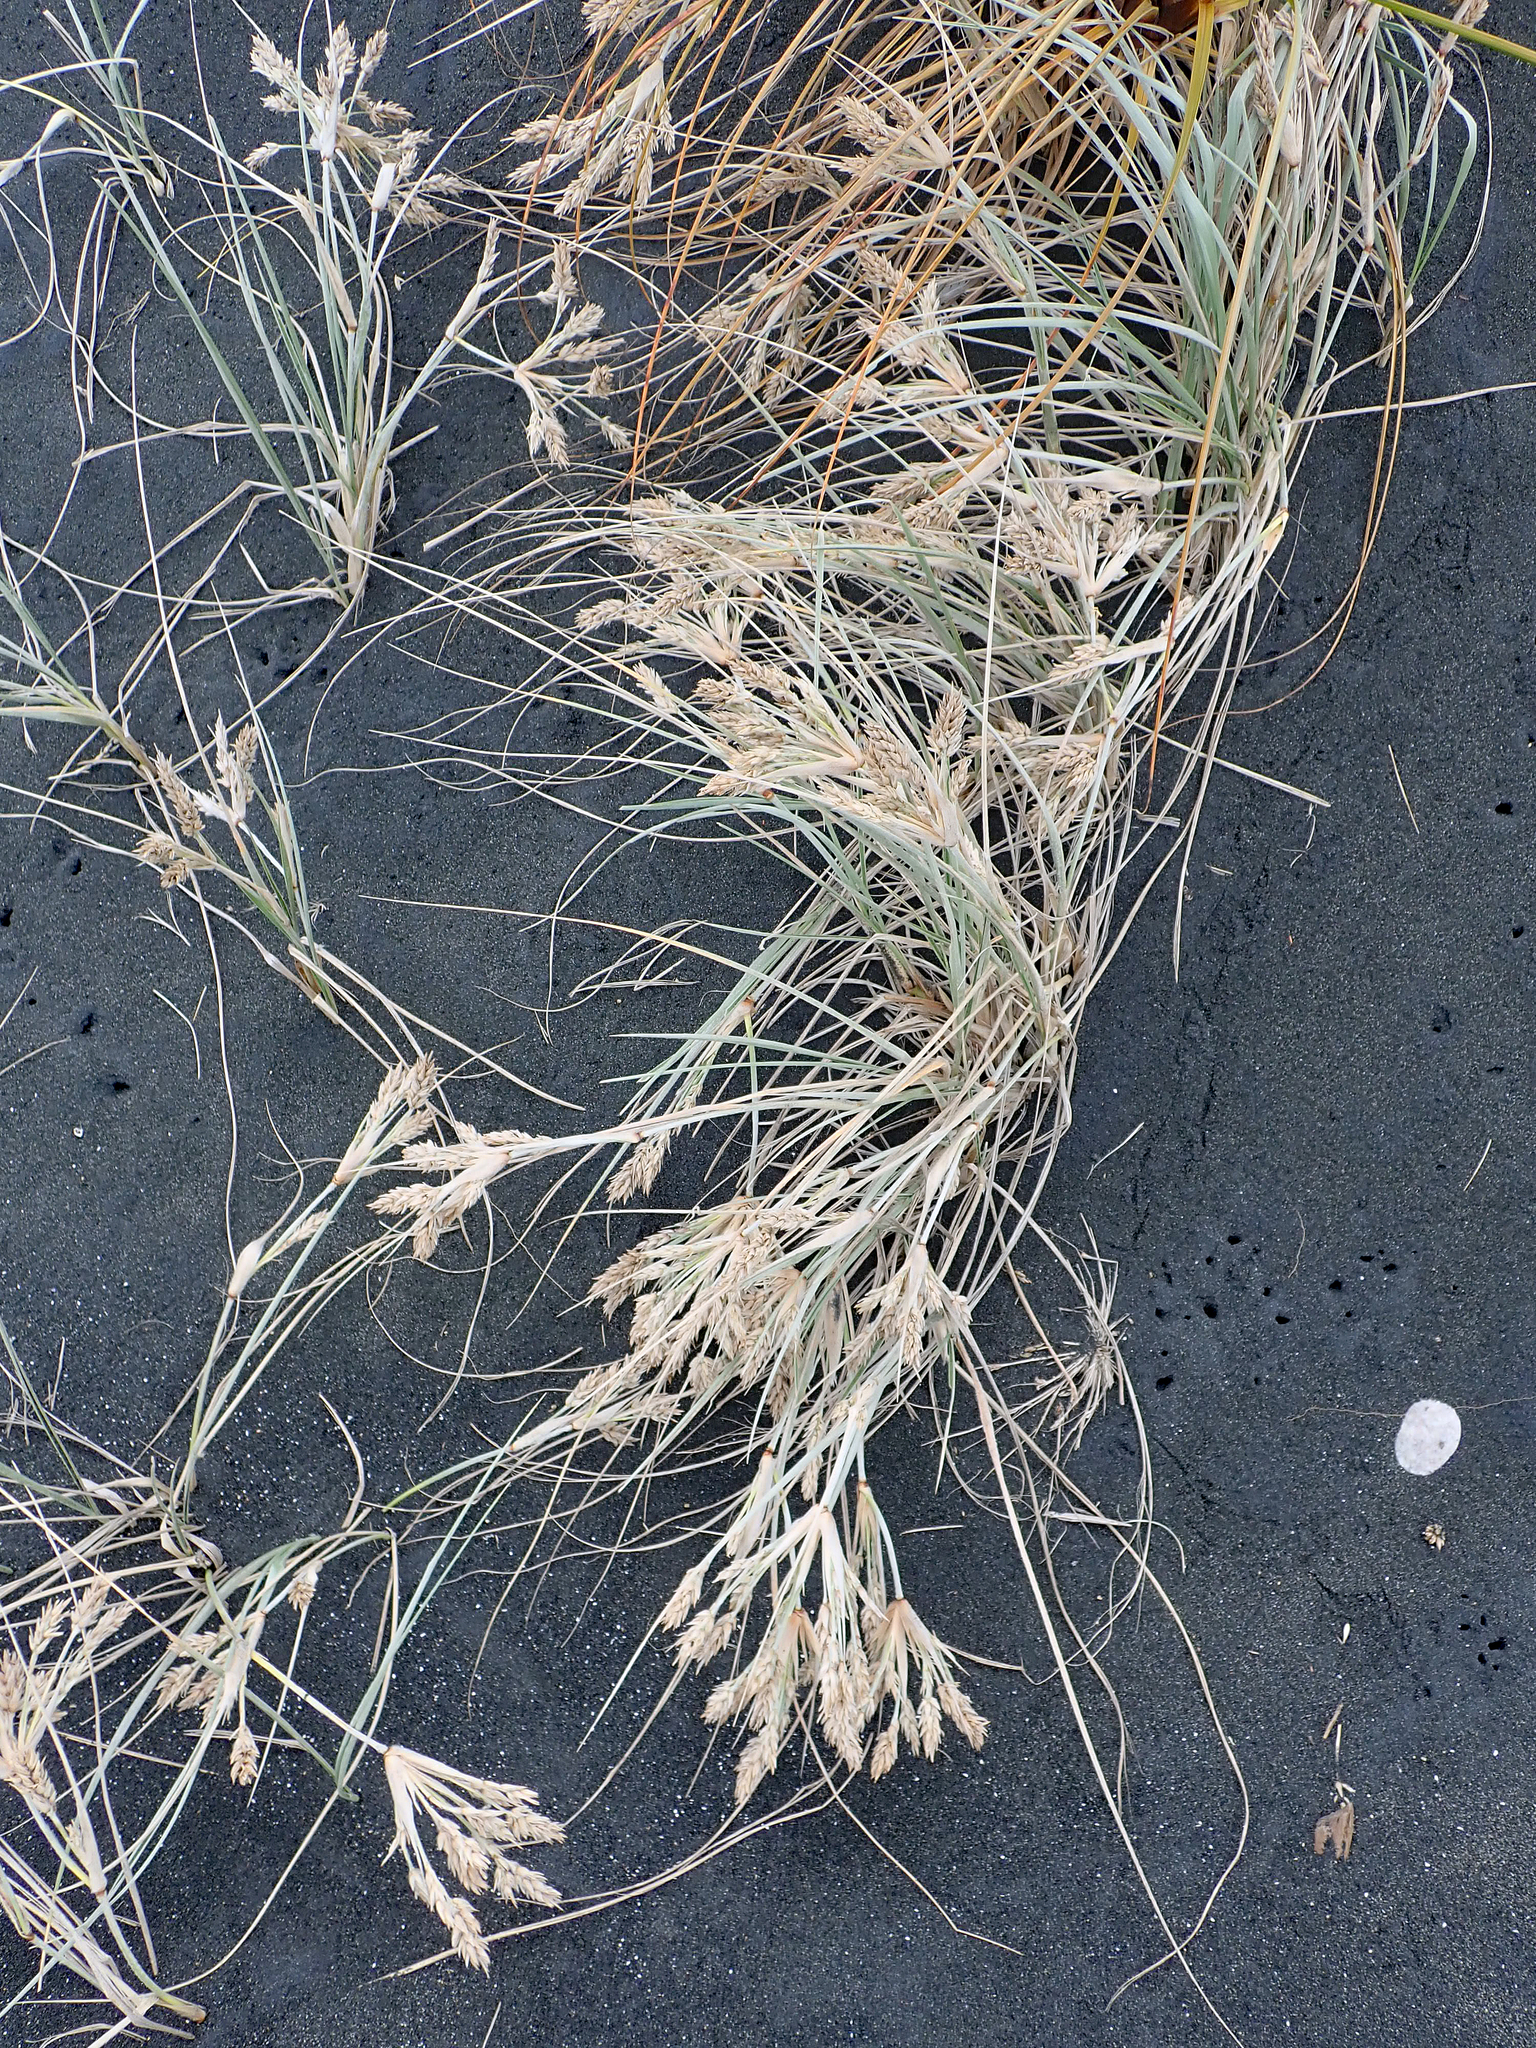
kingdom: Plantae
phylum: Tracheophyta
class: Liliopsida
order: Poales
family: Poaceae
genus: Spinifex
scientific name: Spinifex sericeus
